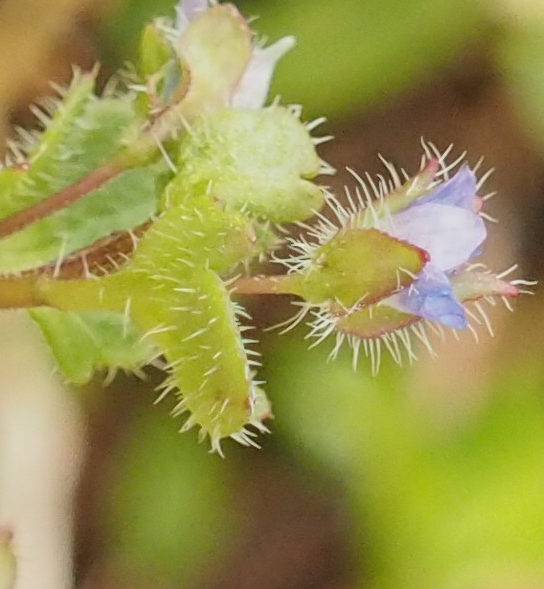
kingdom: Plantae
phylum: Tracheophyta
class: Magnoliopsida
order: Lamiales
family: Plantaginaceae
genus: Veronica
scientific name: Veronica hederifolia
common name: Ivy-leaved speedwell
